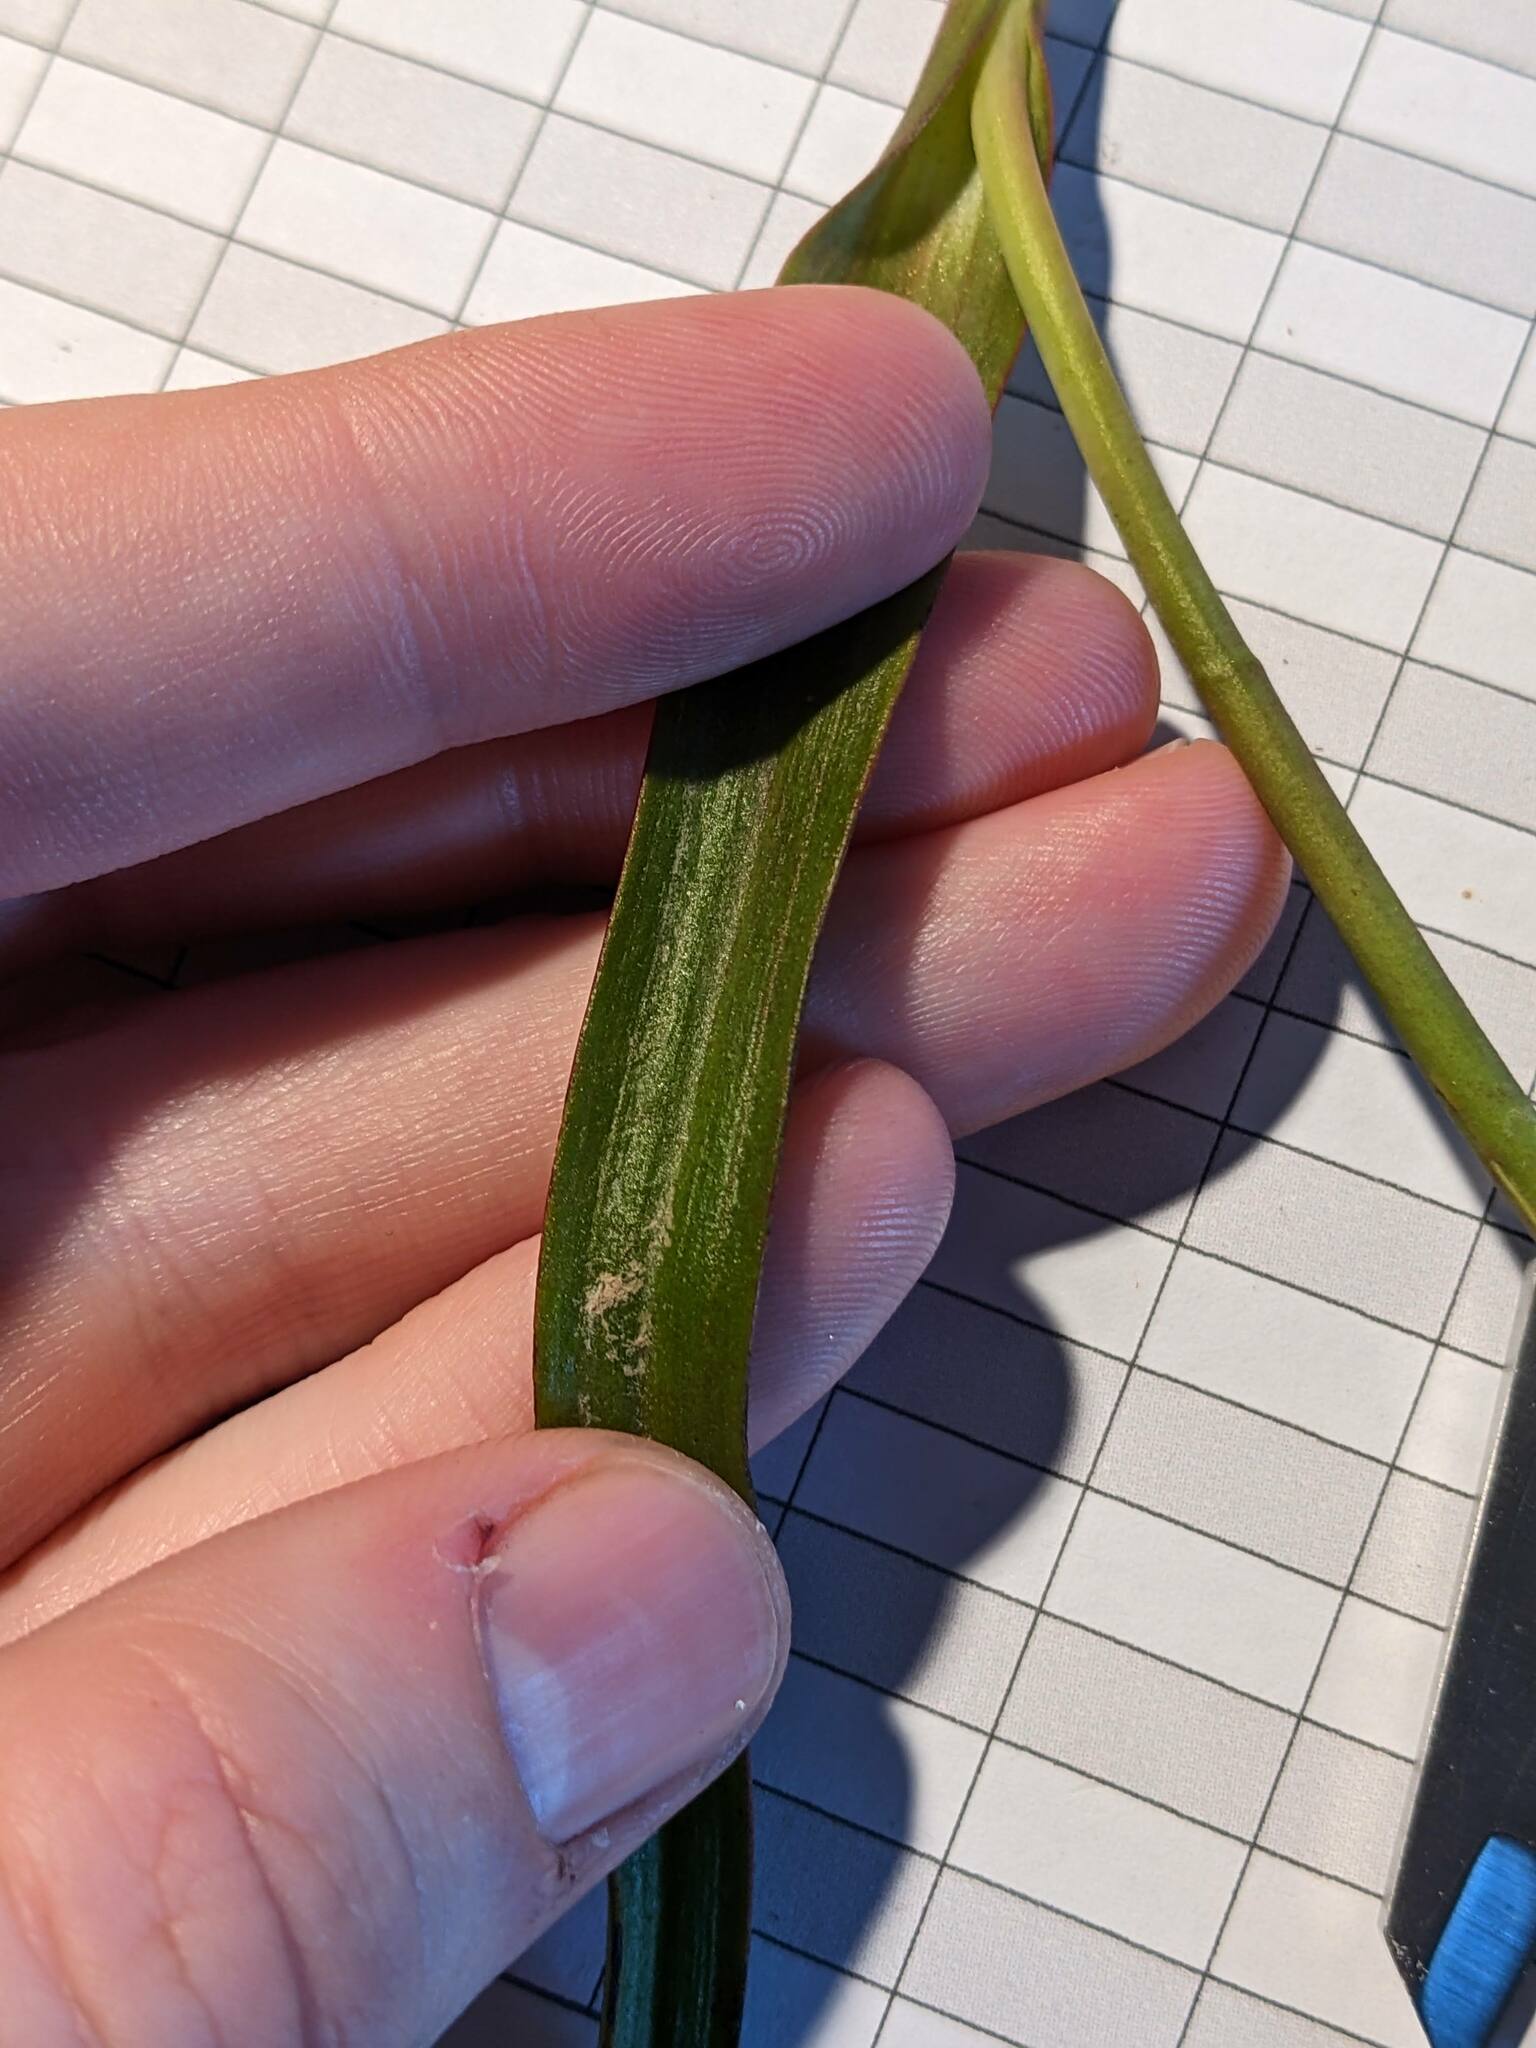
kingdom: Plantae
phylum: Tracheophyta
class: Liliopsida
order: Asparagales
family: Orchidaceae
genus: Thelymitra
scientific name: Thelymitra longifolia
